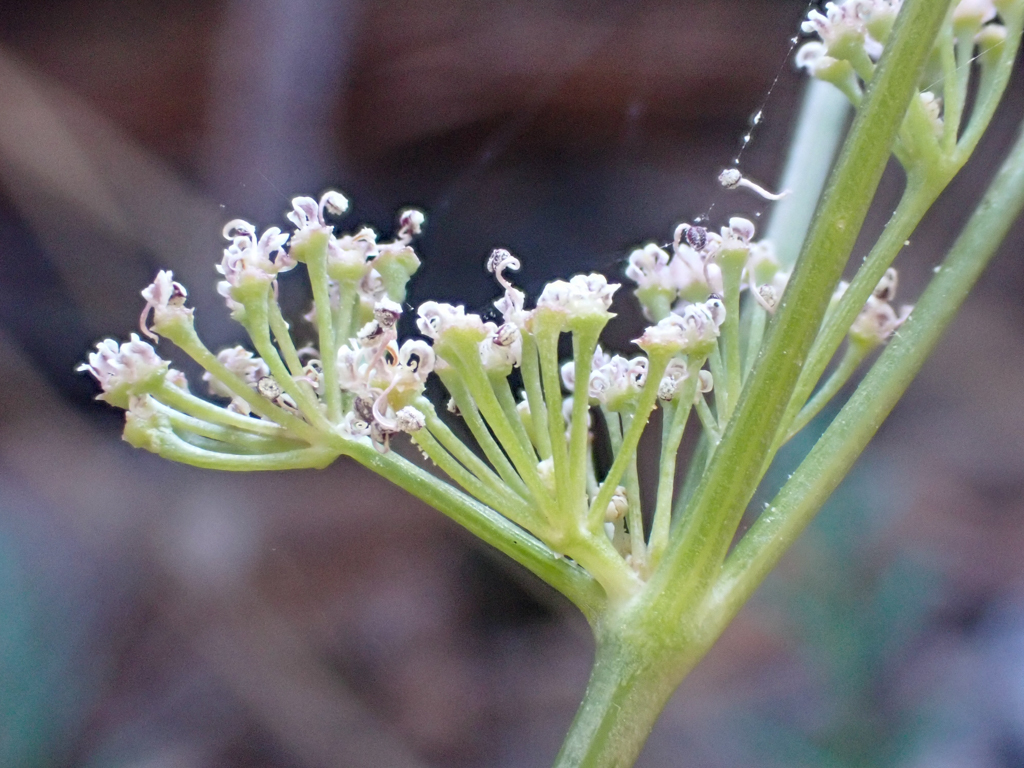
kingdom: Plantae
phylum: Tracheophyta
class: Magnoliopsida
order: Apiales
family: Apiaceae
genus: Lomatium
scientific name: Lomatium engelmannii
